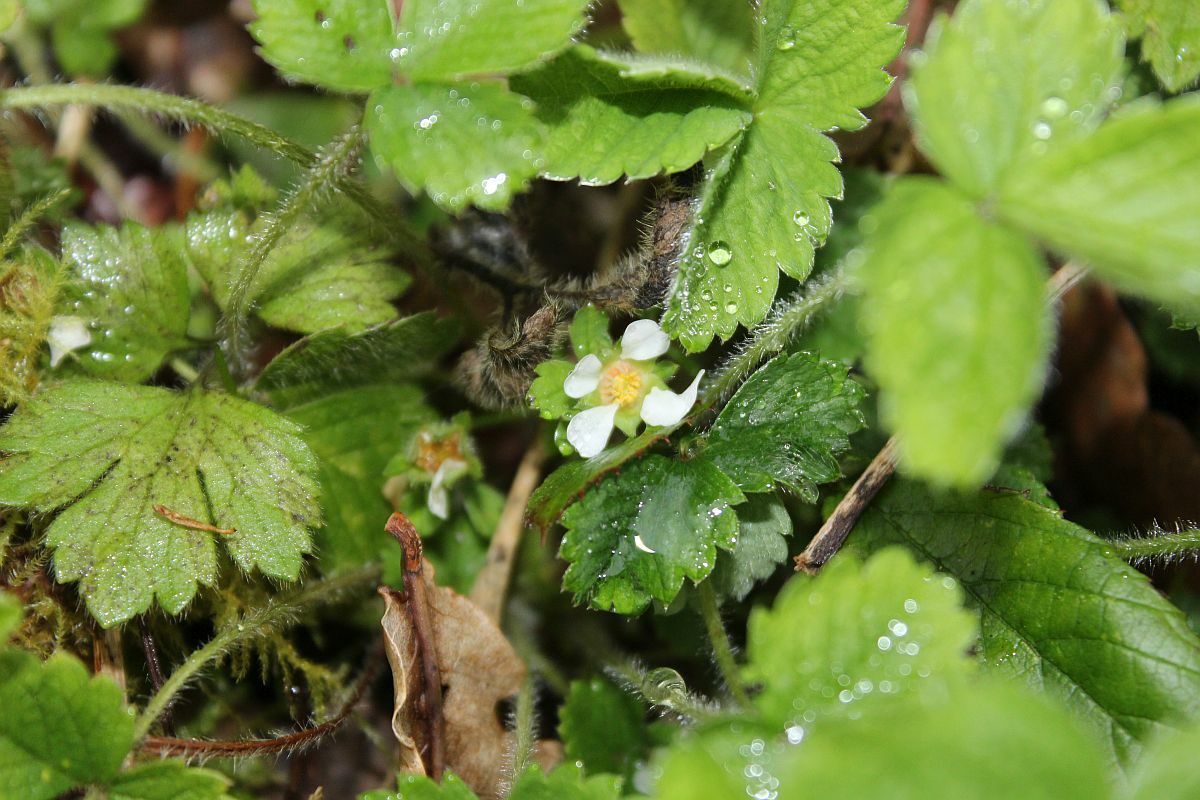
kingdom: Plantae
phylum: Tracheophyta
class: Magnoliopsida
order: Rosales
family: Rosaceae
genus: Potentilla
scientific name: Potentilla sterilis
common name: Barren strawberry
